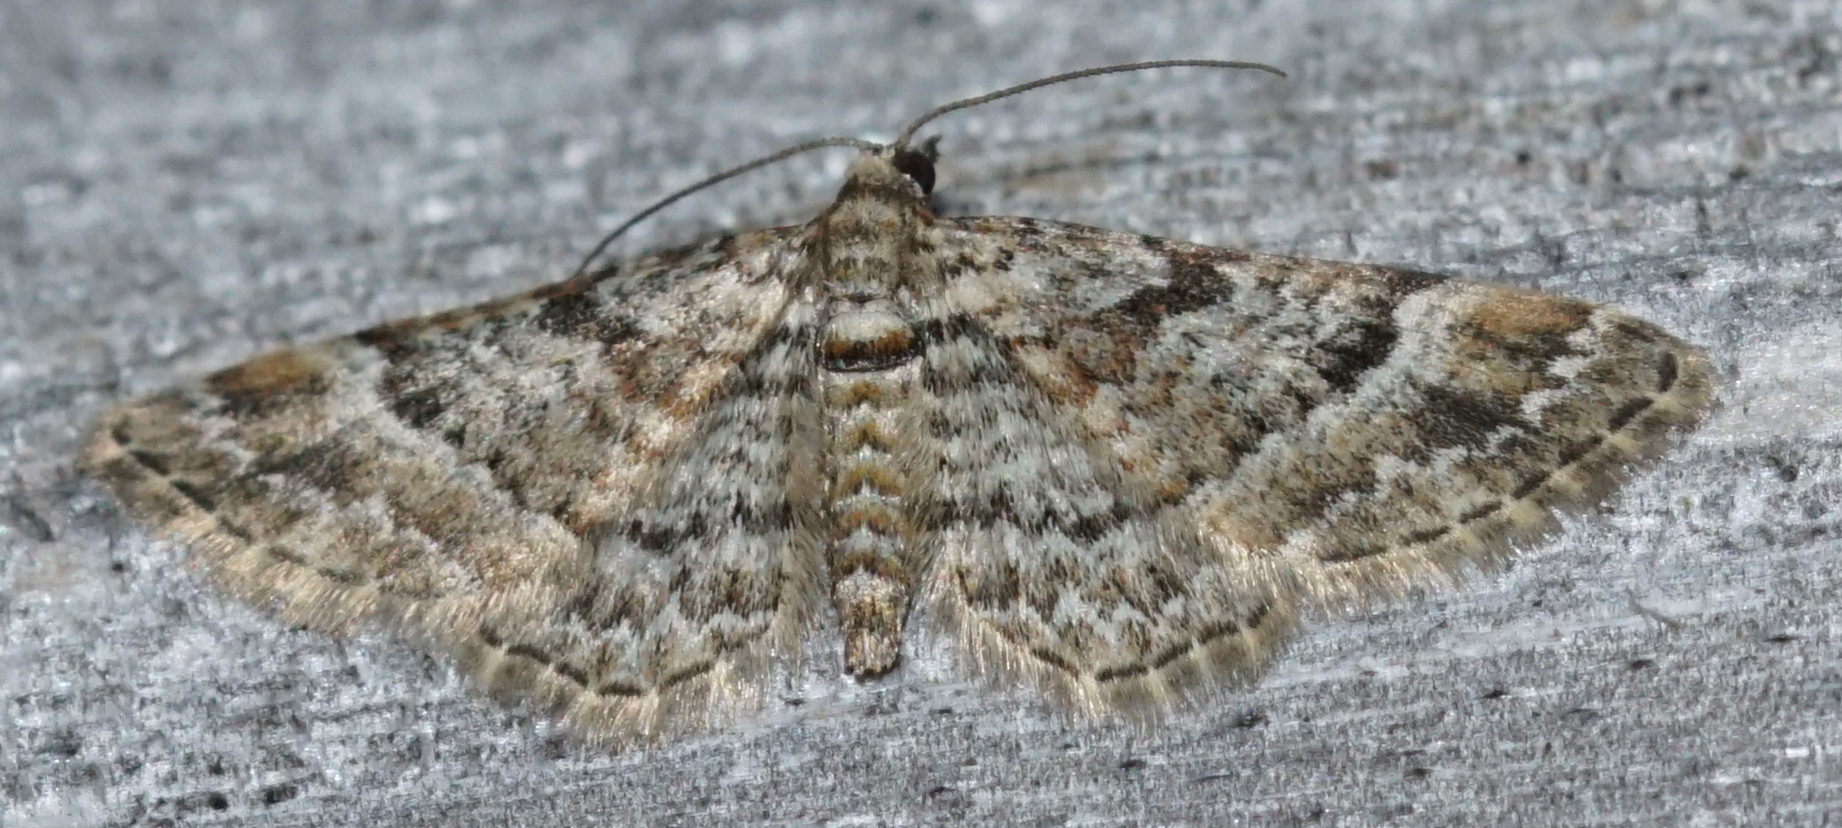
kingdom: Animalia
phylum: Arthropoda
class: Insecta
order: Lepidoptera
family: Geometridae
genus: Gymnoscelis
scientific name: Gymnoscelis rufifasciata
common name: Double-striped pug
